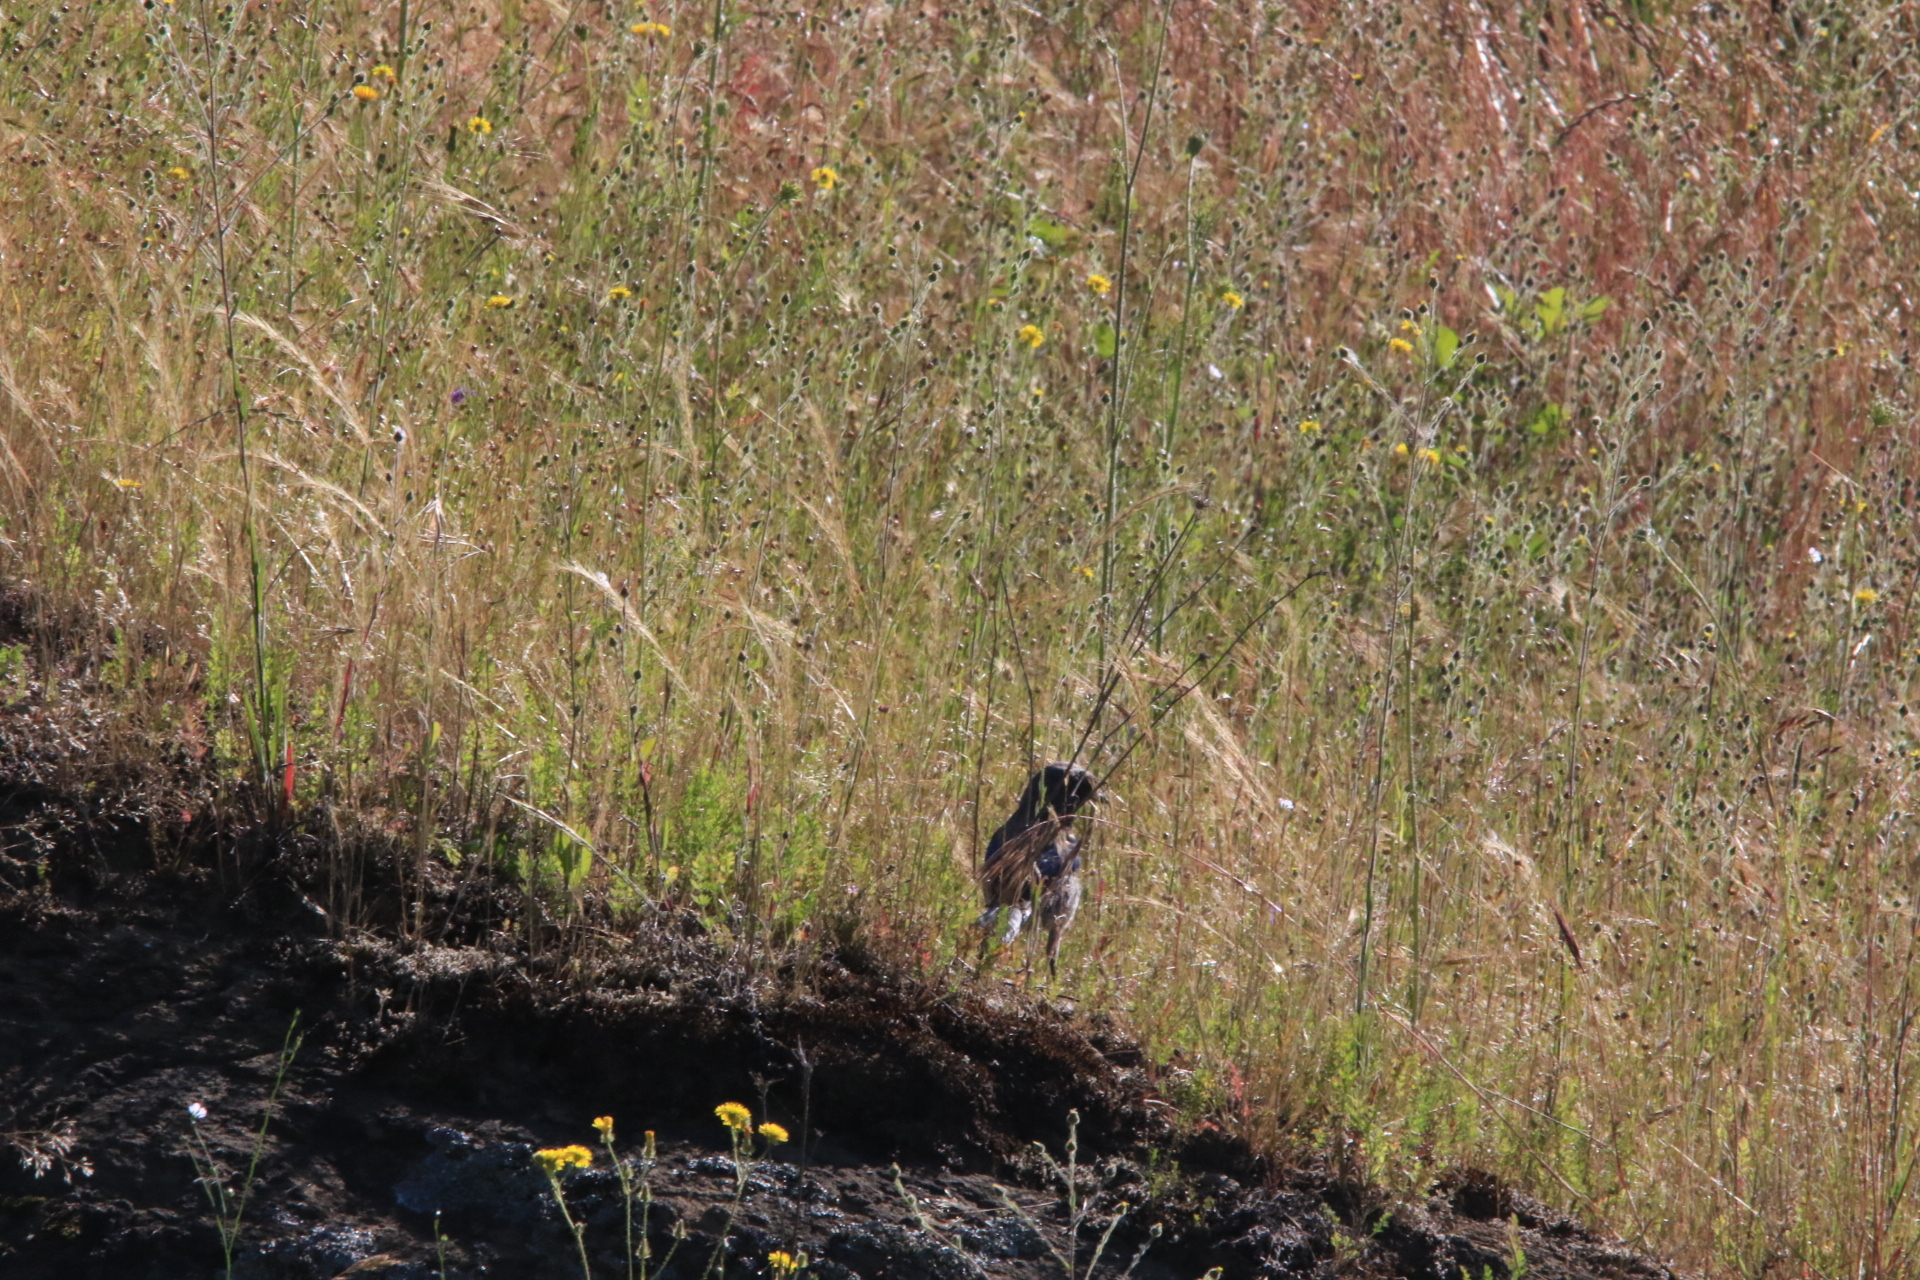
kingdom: Animalia
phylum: Chordata
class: Aves
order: Passeriformes
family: Corvidae
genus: Aphelocoma
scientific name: Aphelocoma californica
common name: California scrub-jay
